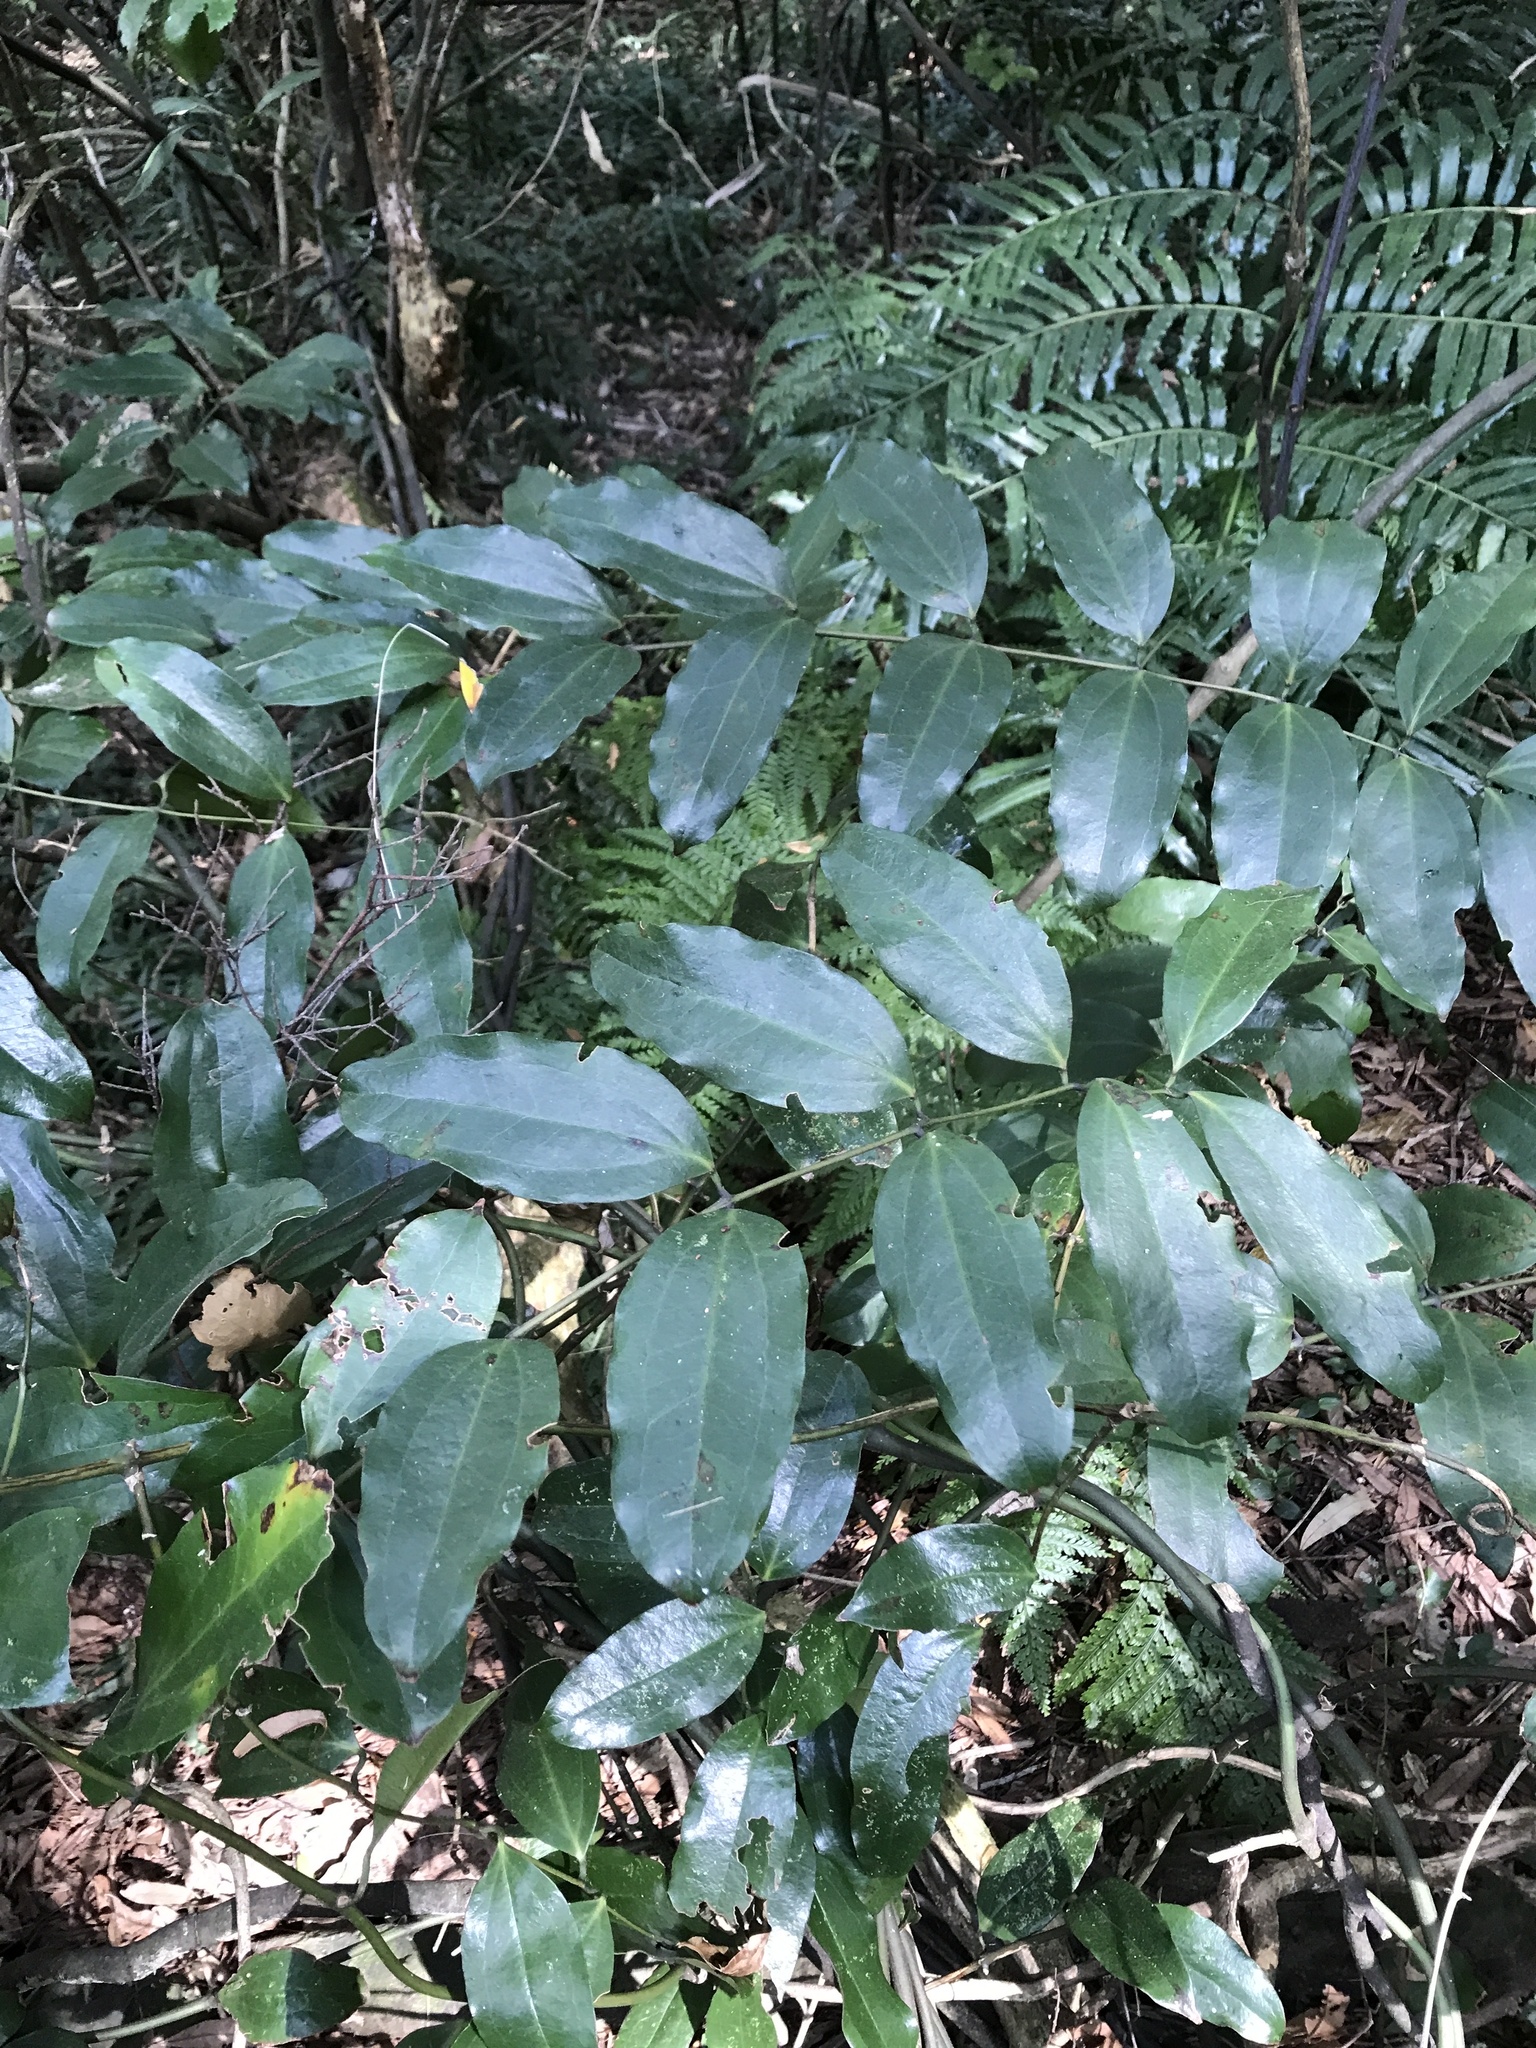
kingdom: Plantae
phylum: Tracheophyta
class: Liliopsida
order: Liliales
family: Ripogonaceae
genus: Ripogonum
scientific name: Ripogonum scandens
